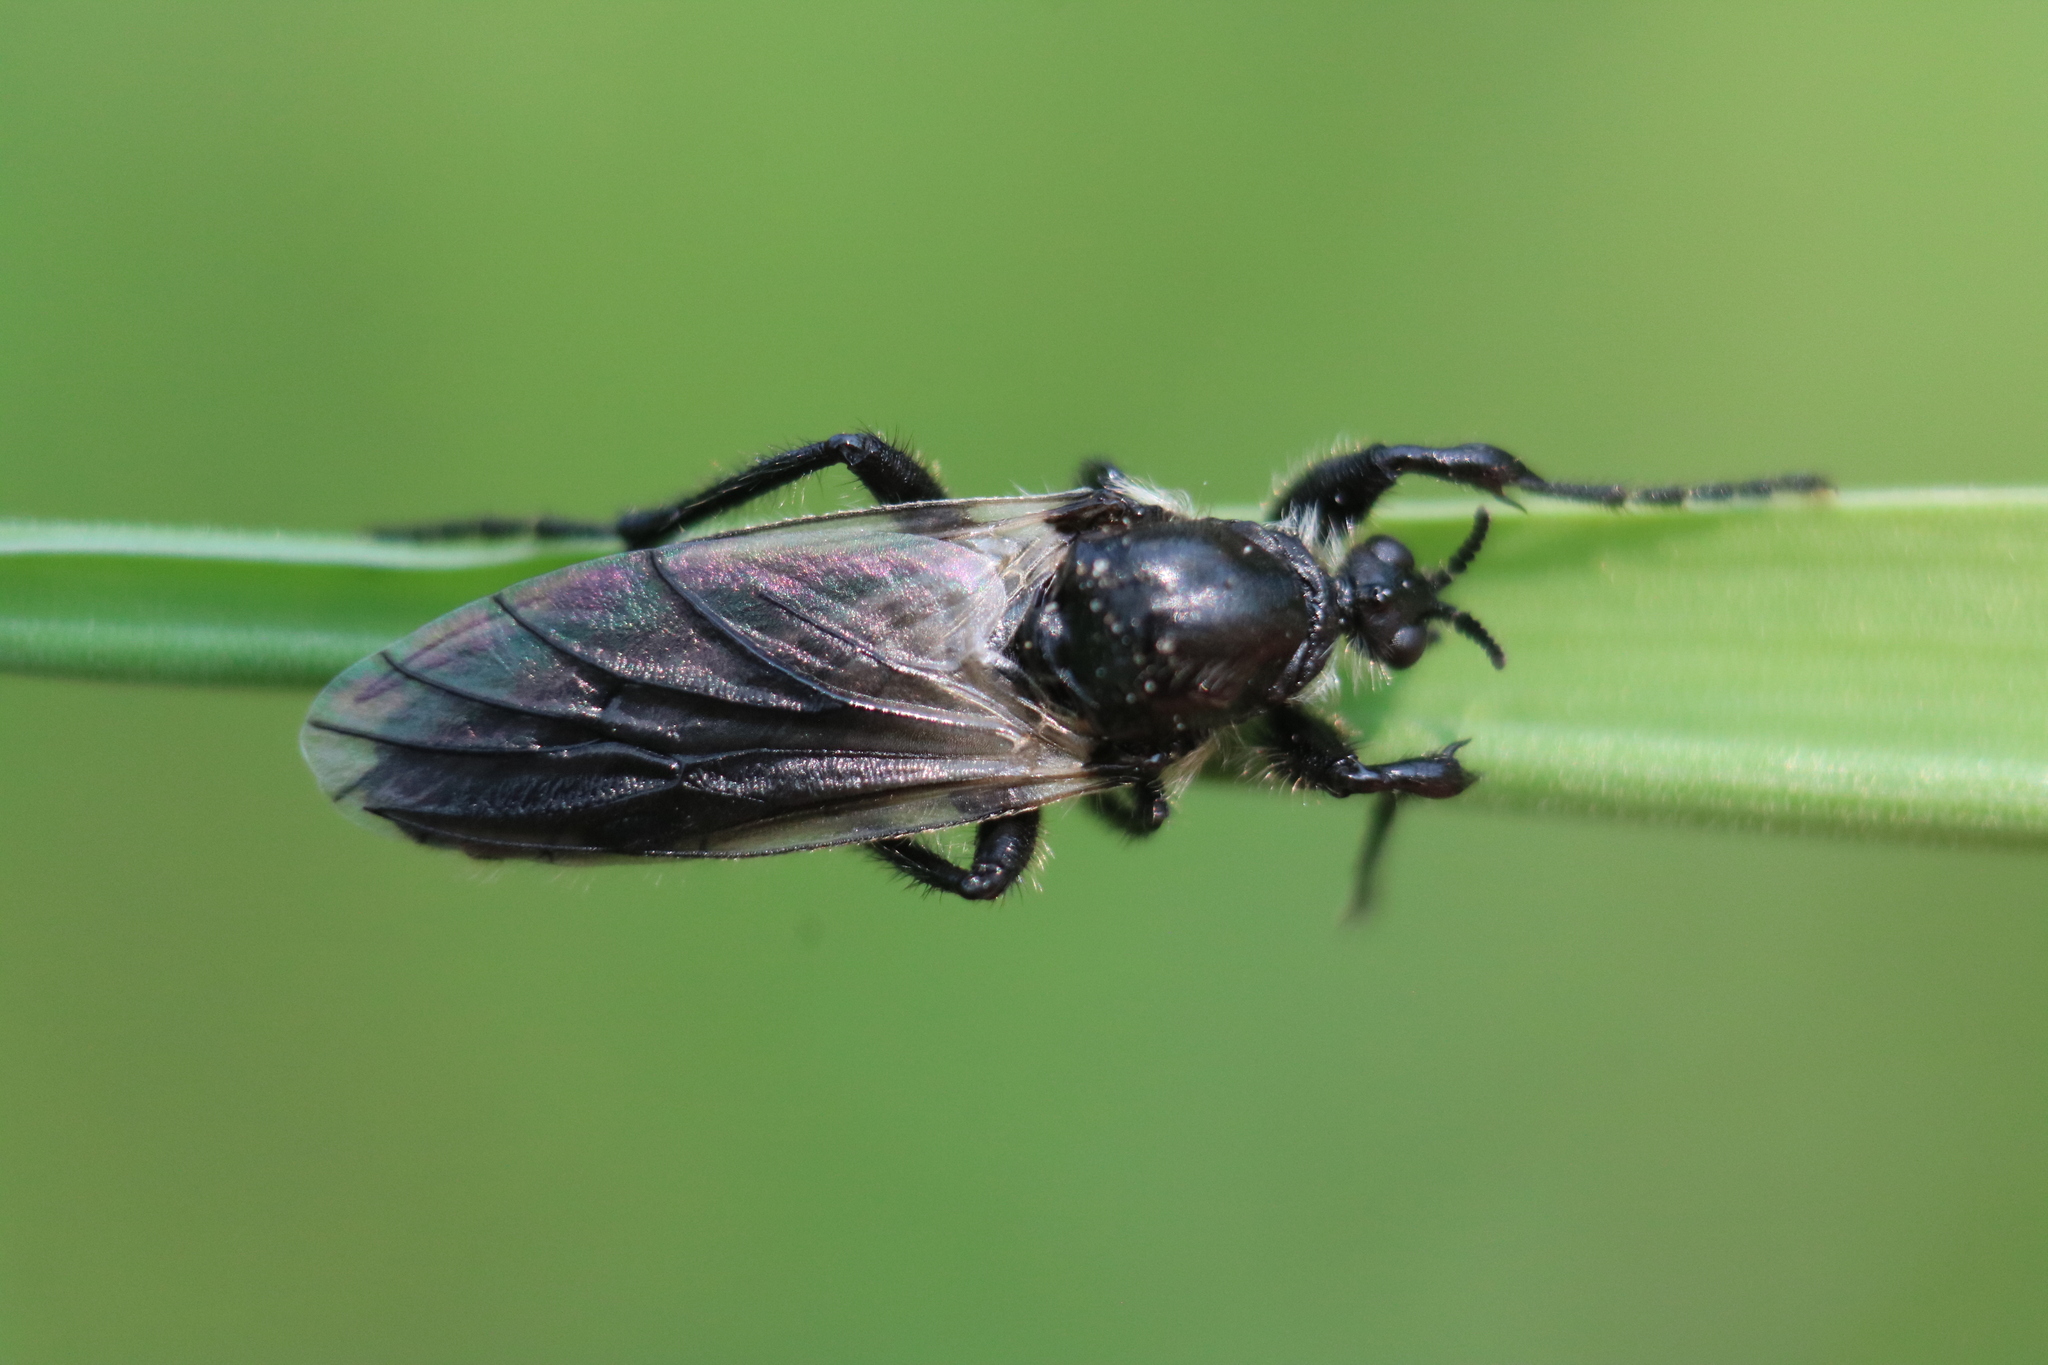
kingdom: Animalia
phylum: Arthropoda
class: Insecta
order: Diptera
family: Bibionidae
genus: Bibio
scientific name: Bibio albipennis
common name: White-winged march fly
